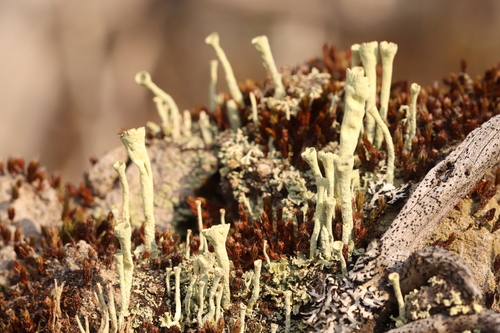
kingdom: Fungi
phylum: Ascomycota
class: Lecanoromycetes
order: Lecanorales
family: Cladoniaceae
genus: Cladonia
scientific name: Cladonia deformis
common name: Lesser sulphur-cup lichen
